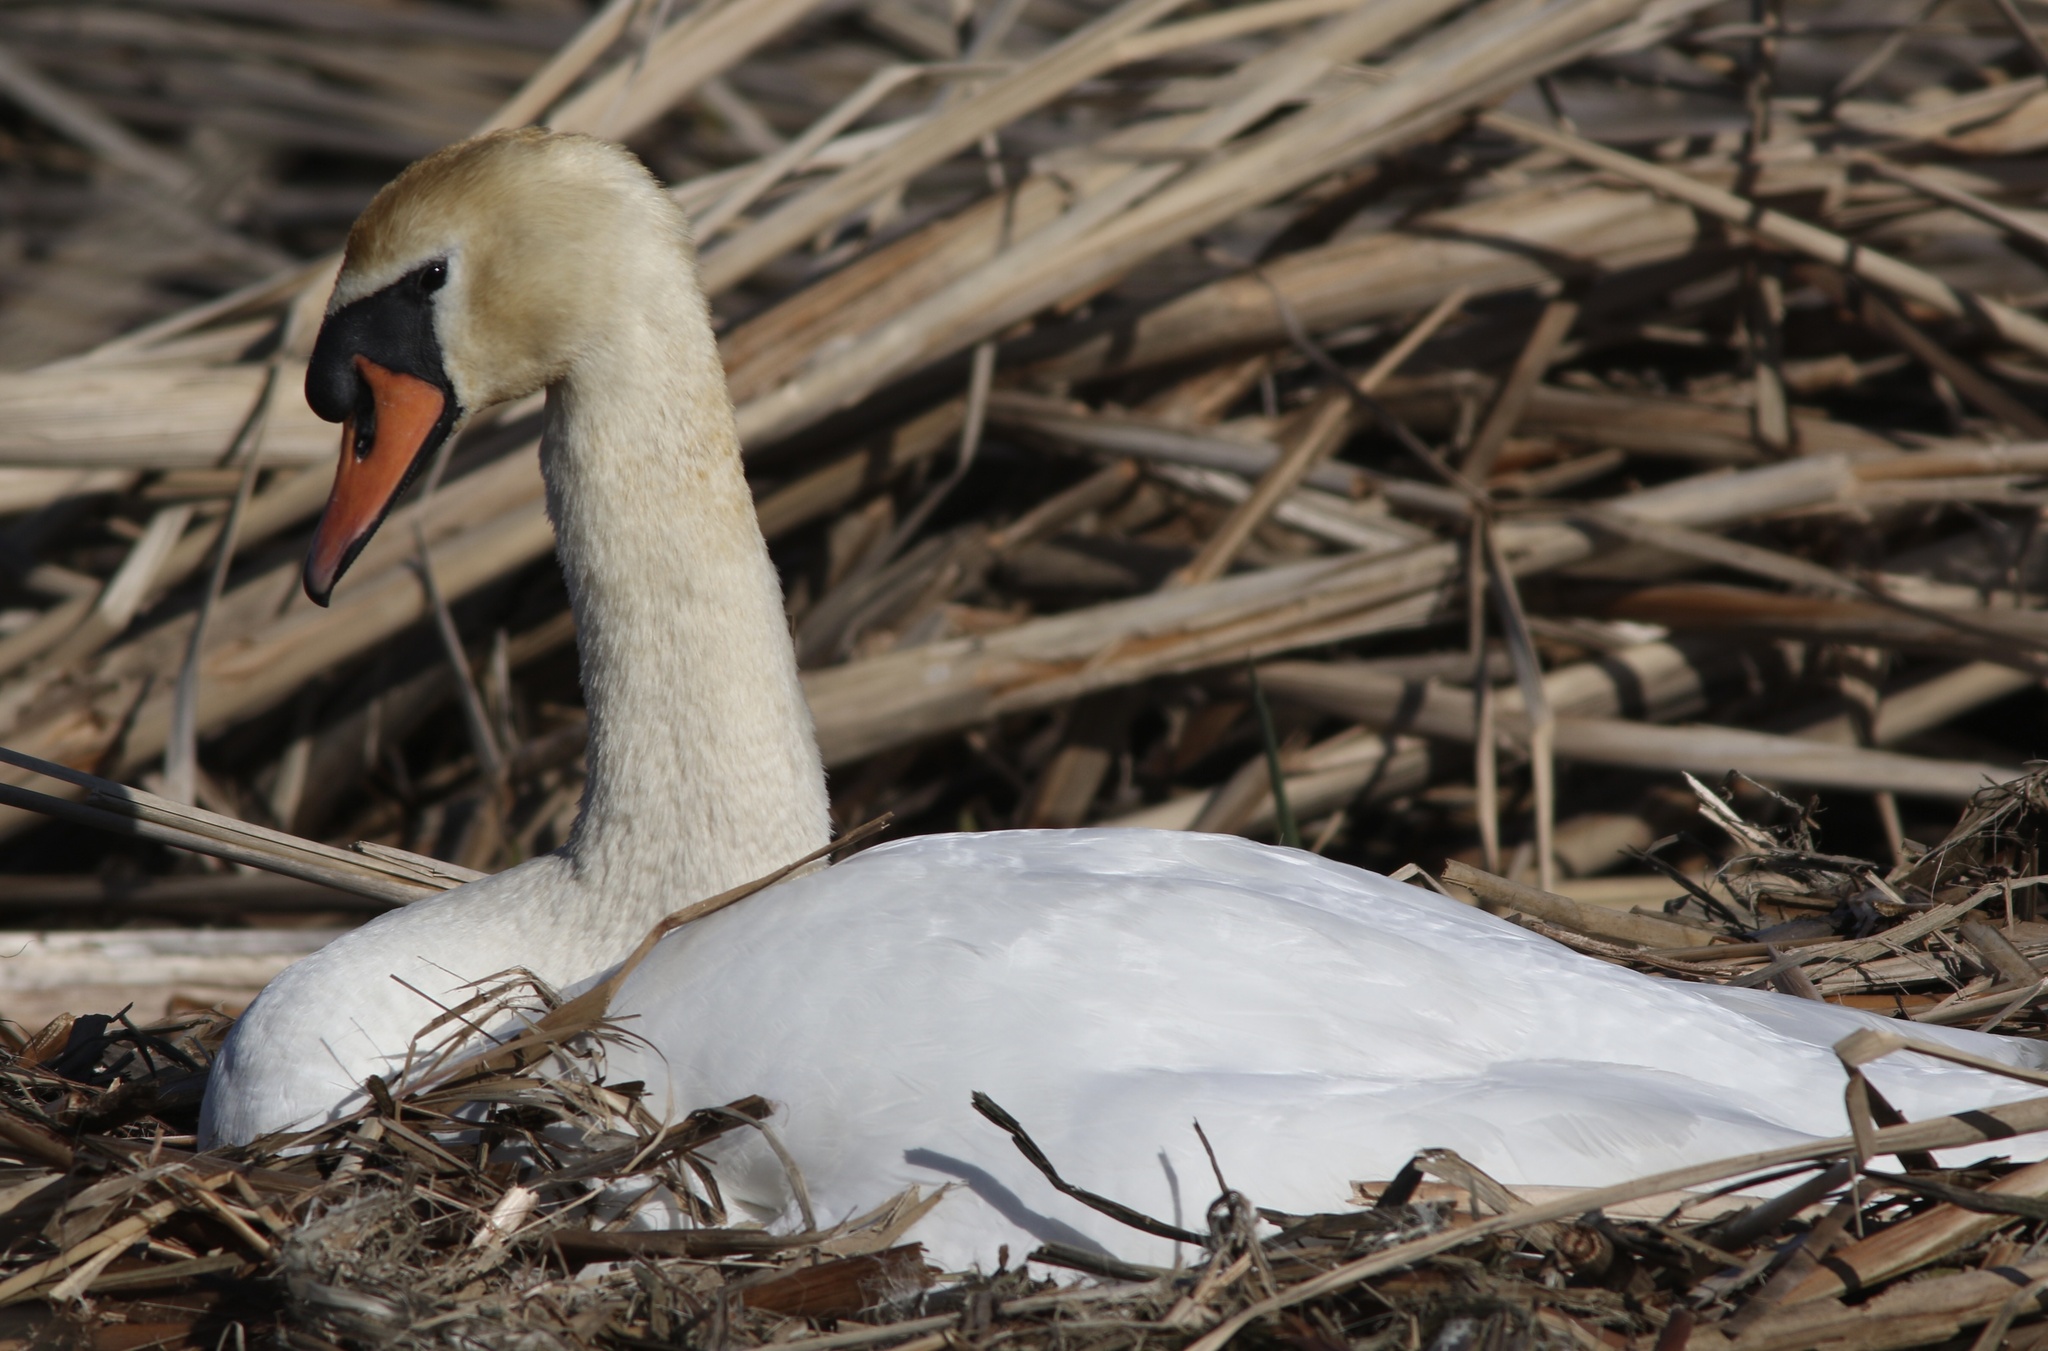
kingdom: Animalia
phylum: Chordata
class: Aves
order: Anseriformes
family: Anatidae
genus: Cygnus
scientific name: Cygnus olor
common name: Mute swan
